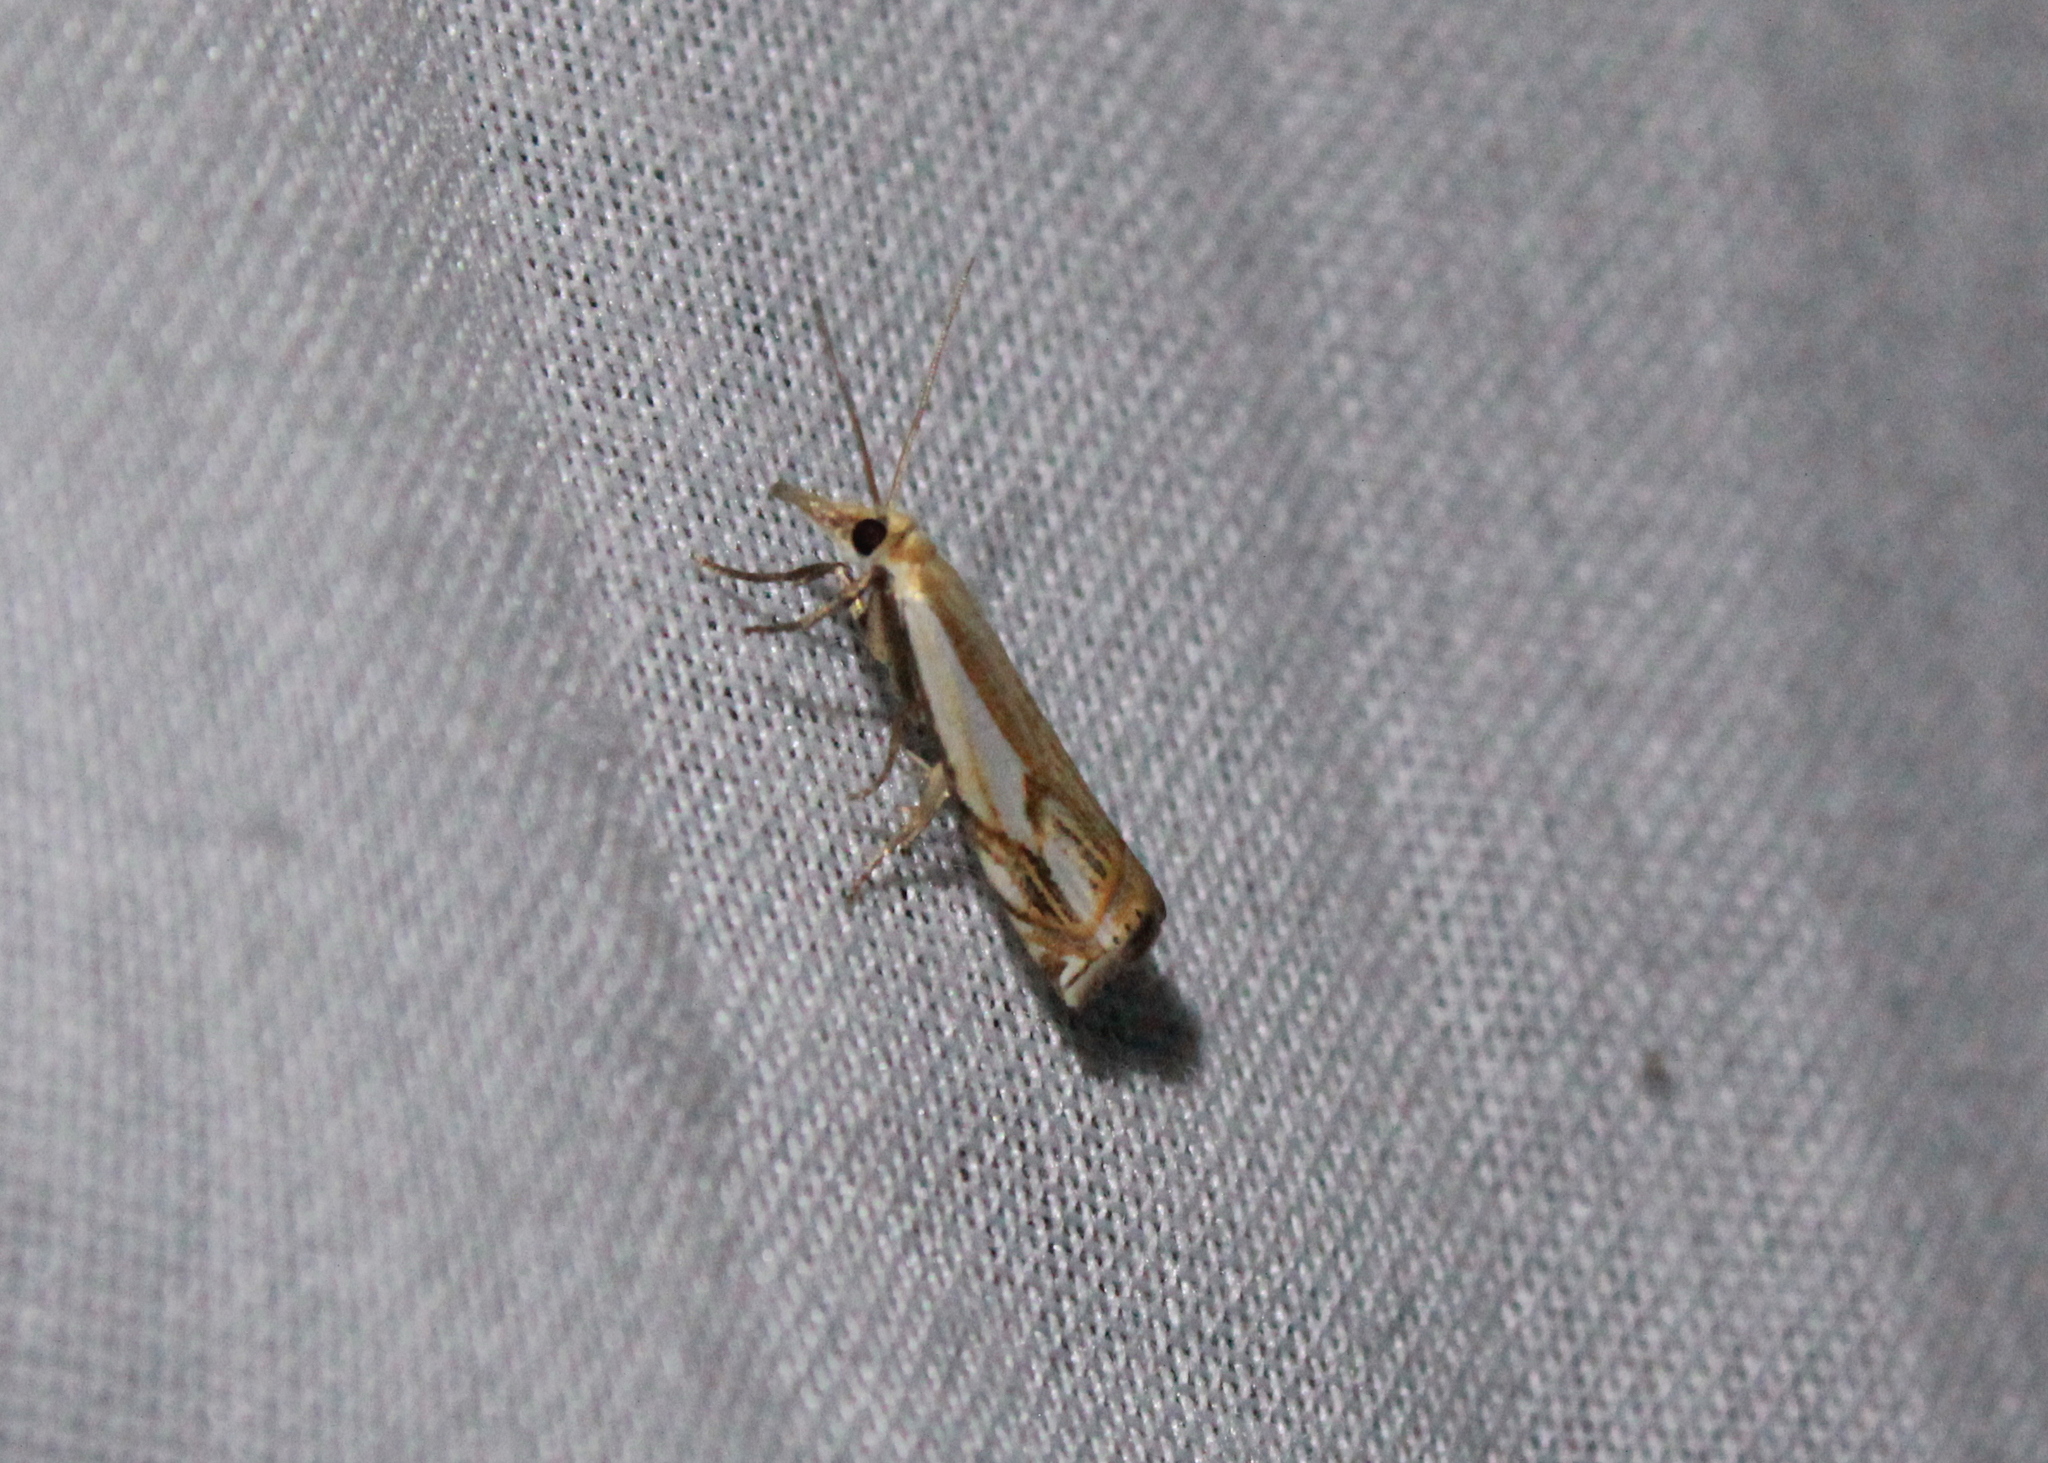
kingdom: Animalia
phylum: Arthropoda
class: Insecta
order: Lepidoptera
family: Crambidae
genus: Crambus
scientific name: Crambus agitatellus
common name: Double-banded grass-veneer
